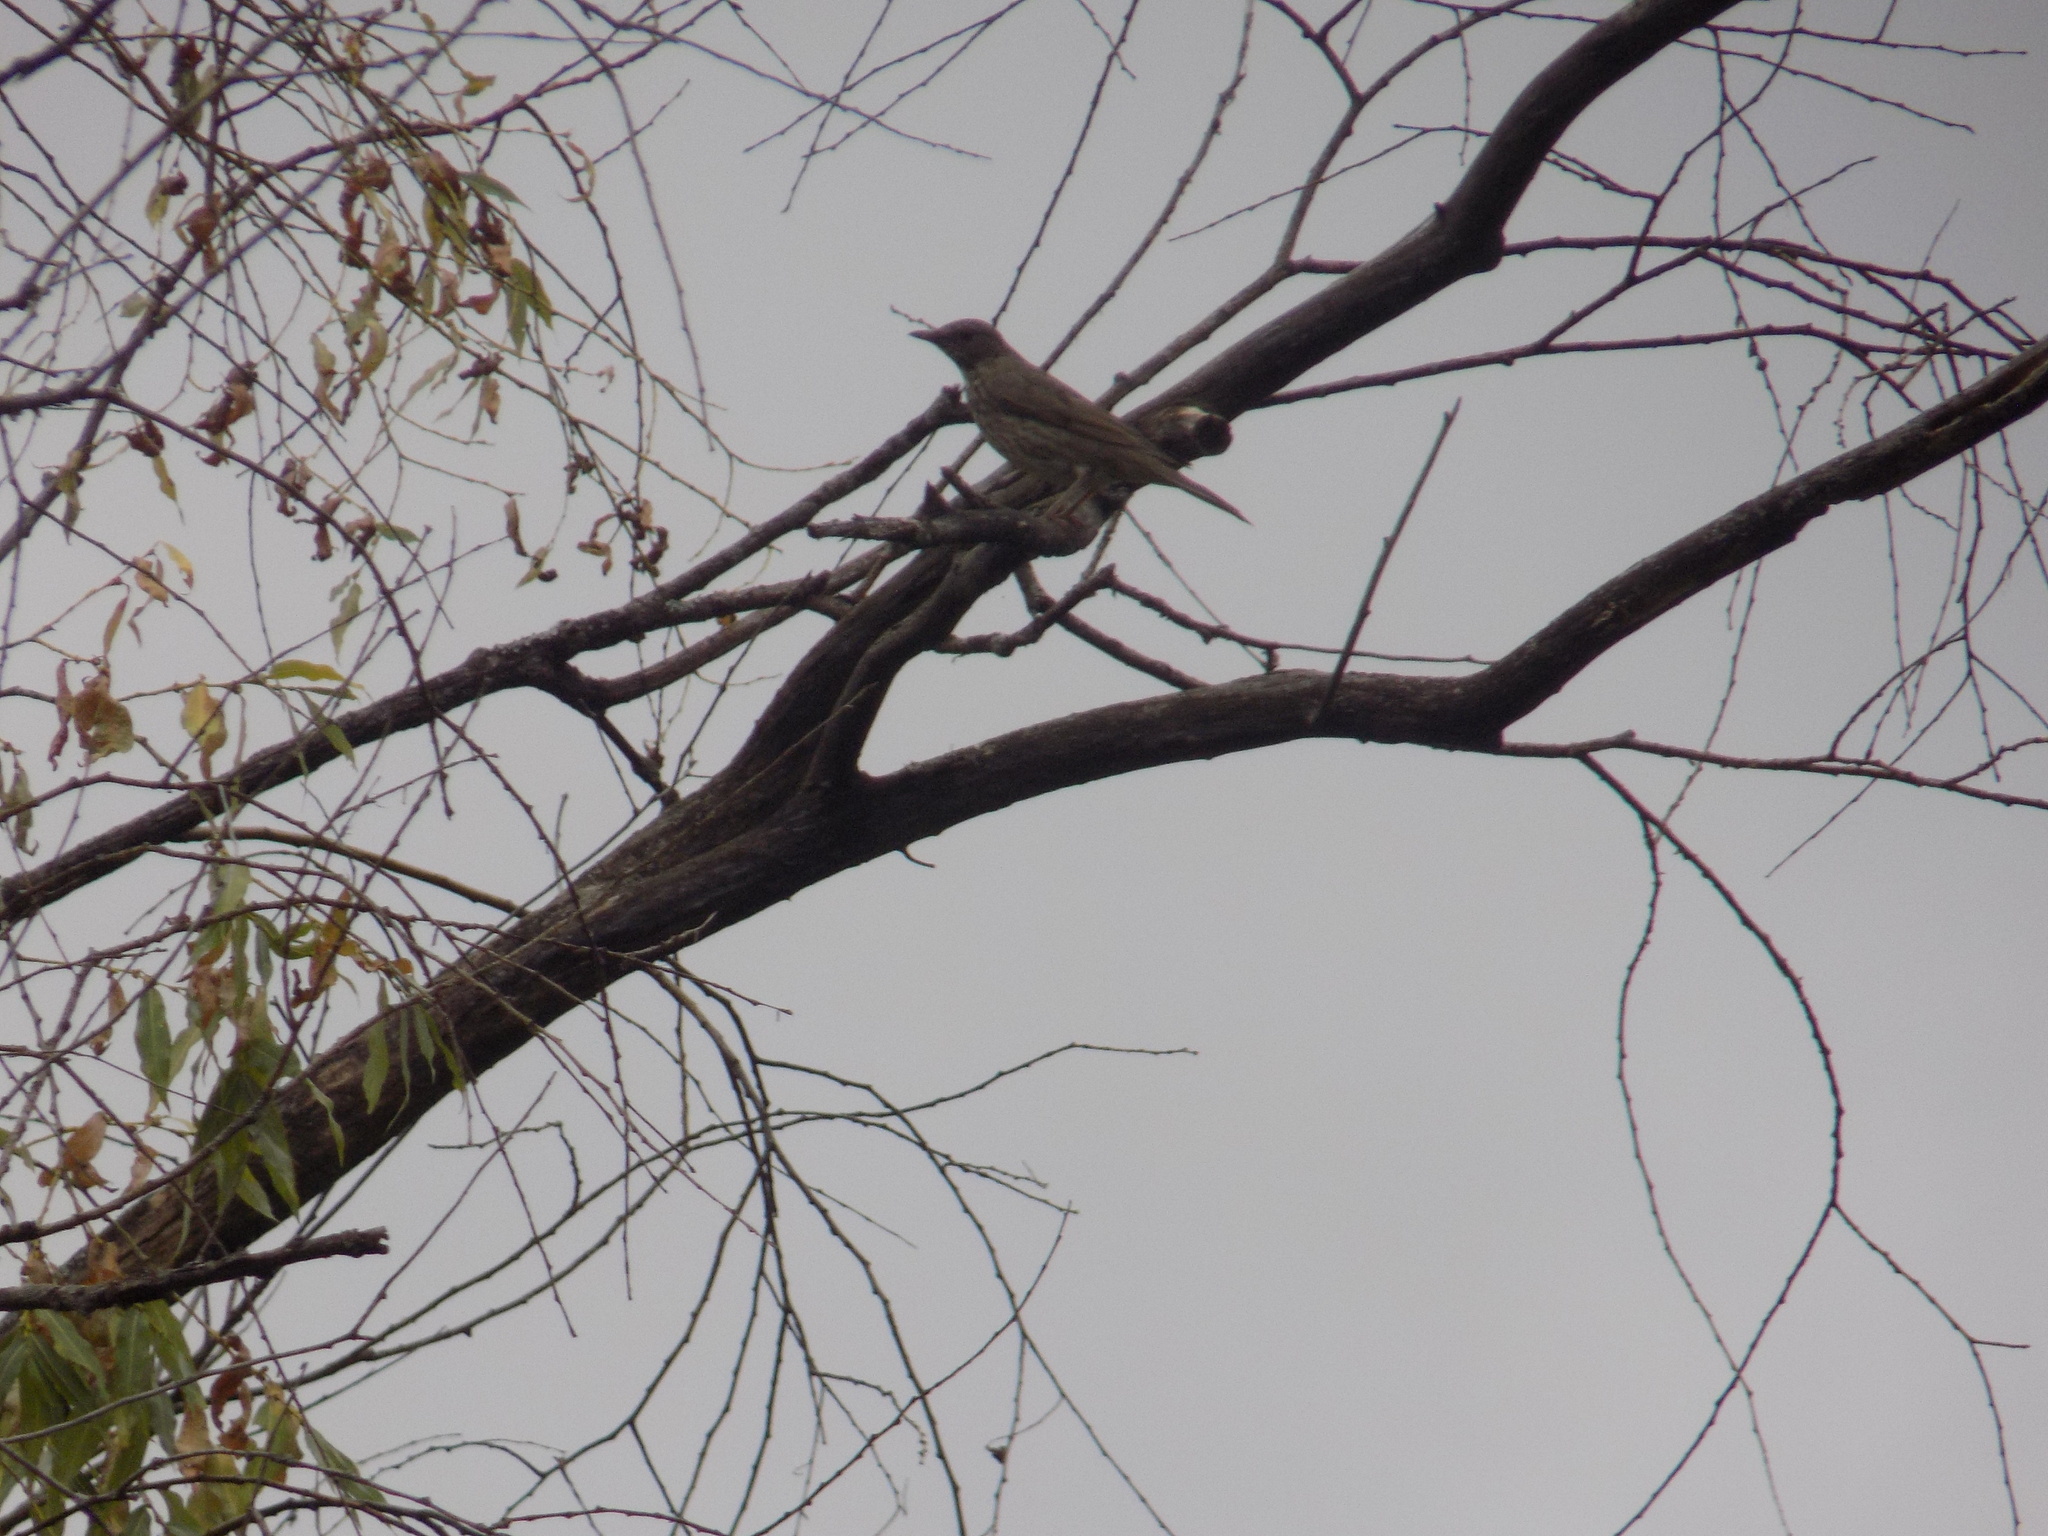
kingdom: Animalia
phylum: Chordata
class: Aves
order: Passeriformes
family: Turdidae
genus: Turdus
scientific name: Turdus atrogularis
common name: Black-throated thrush
